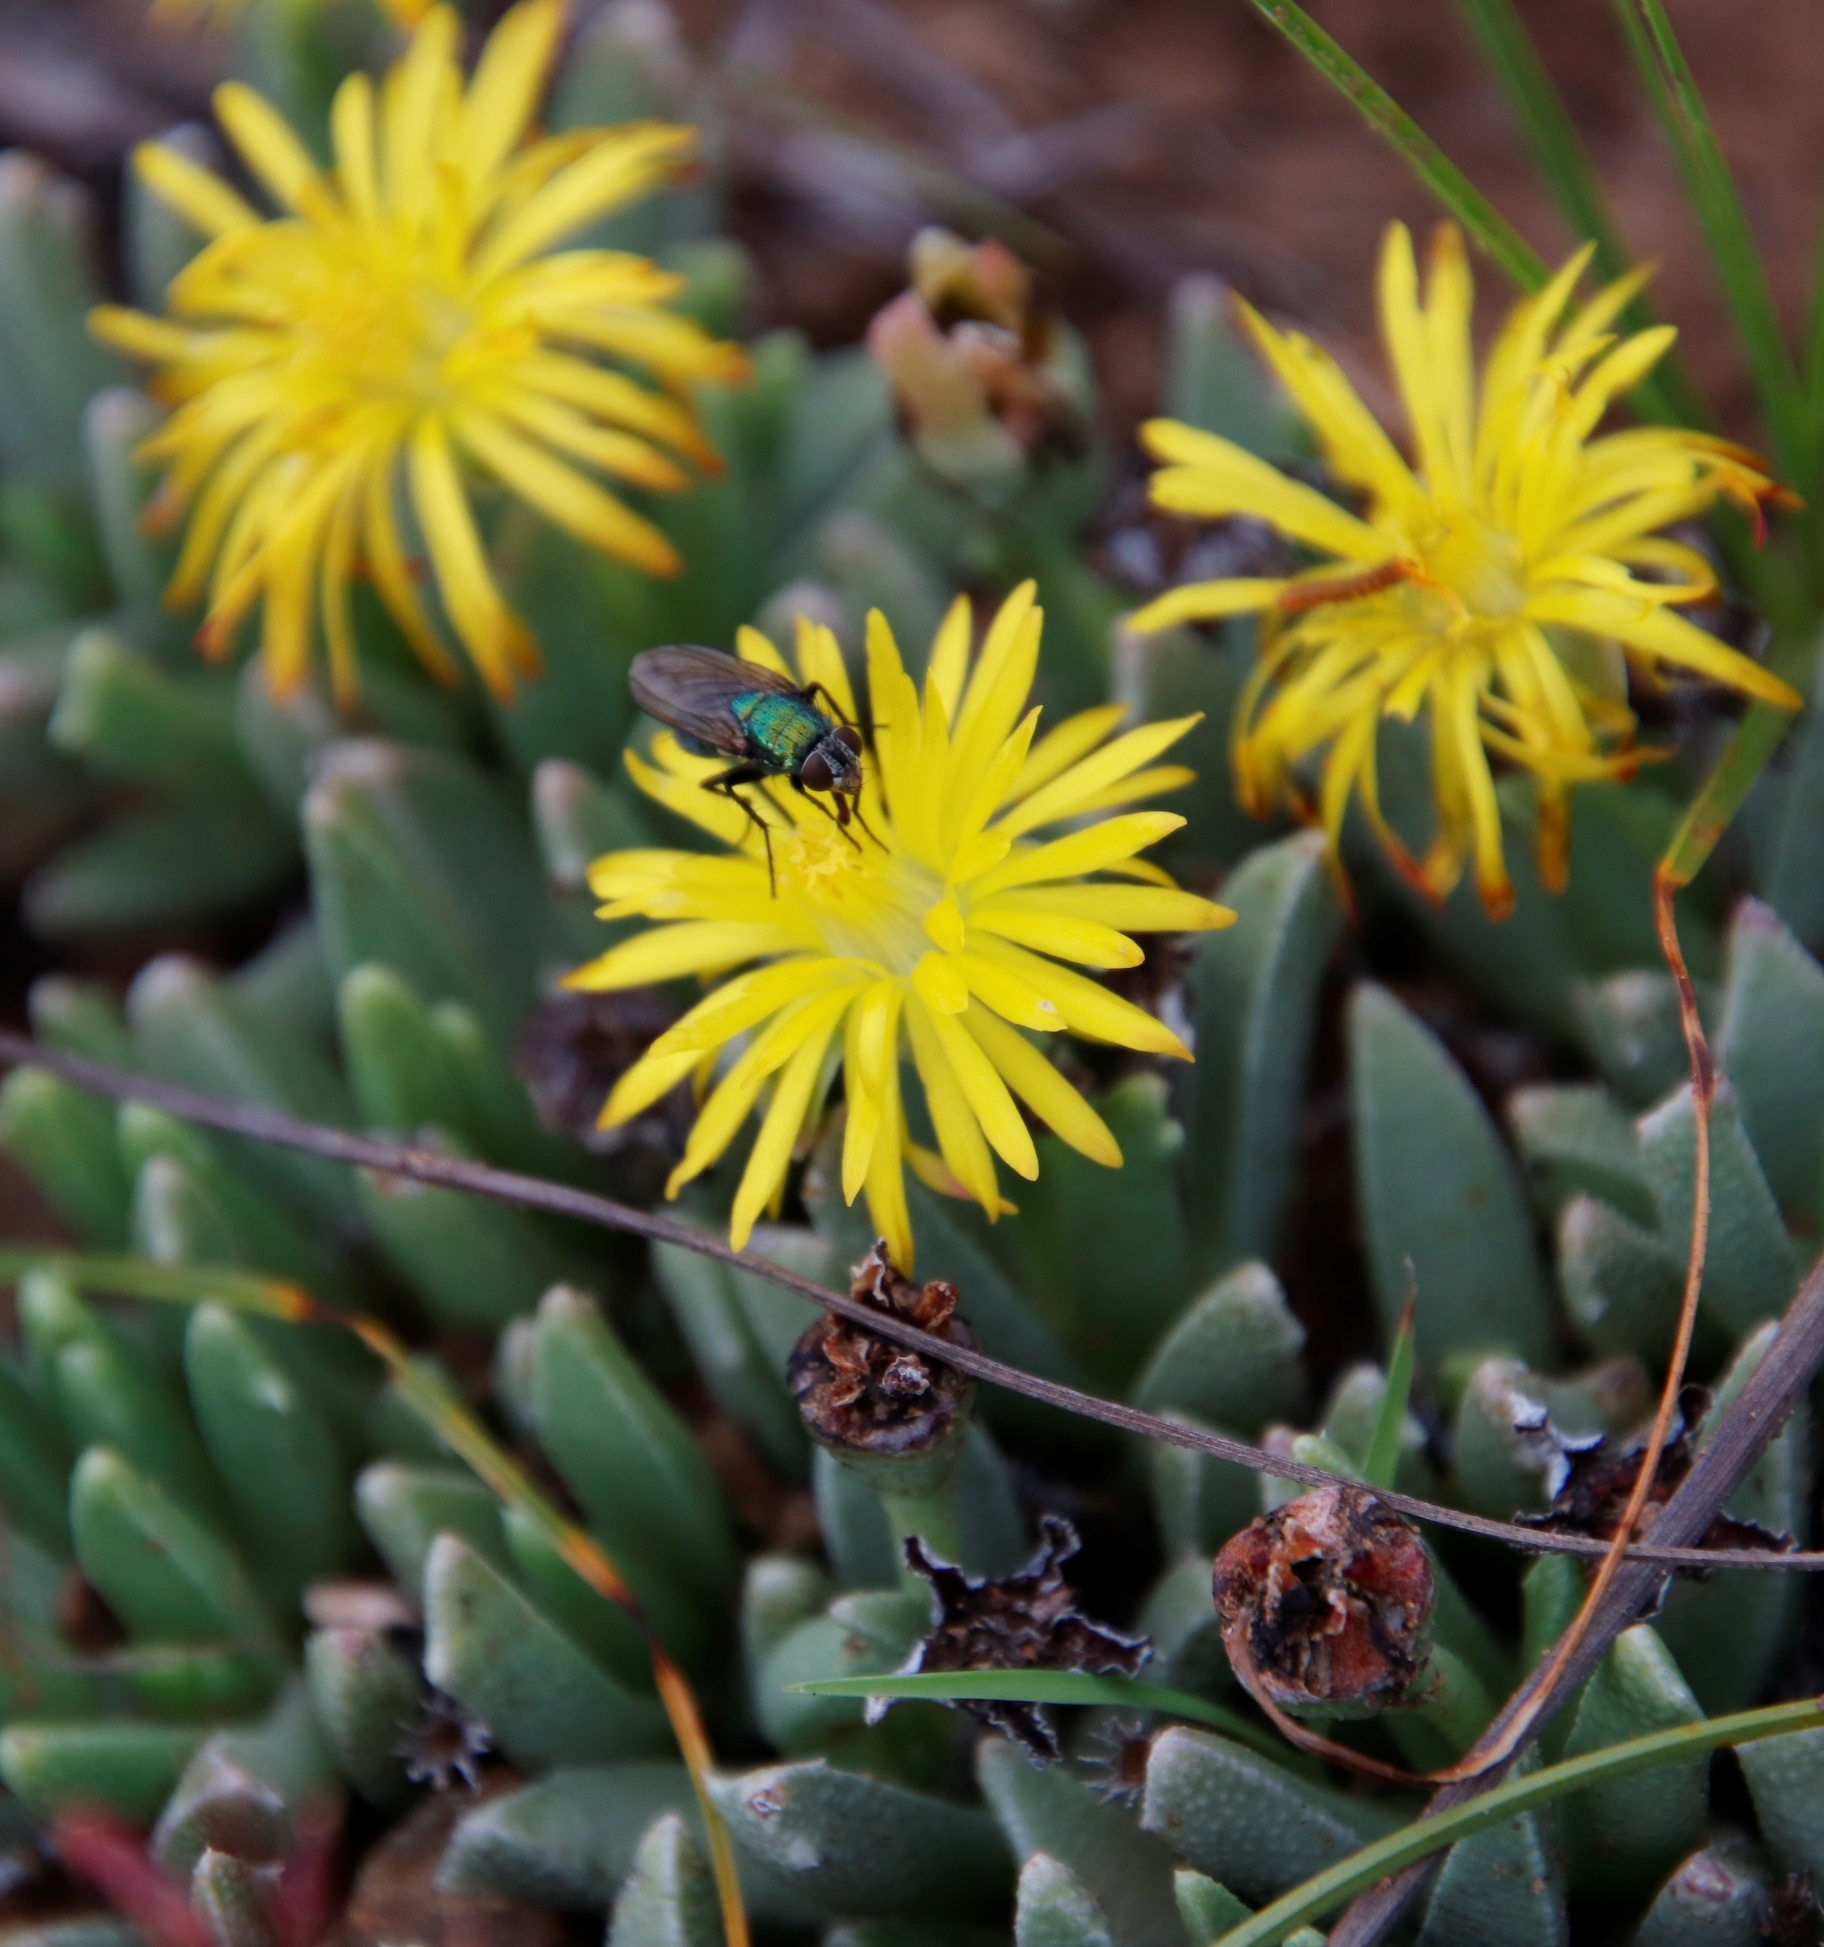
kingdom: Plantae
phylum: Tracheophyta
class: Magnoliopsida
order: Caryophyllales
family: Aizoaceae
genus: Dracophilus
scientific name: Dracophilus Chasmatophyllum musculinum
